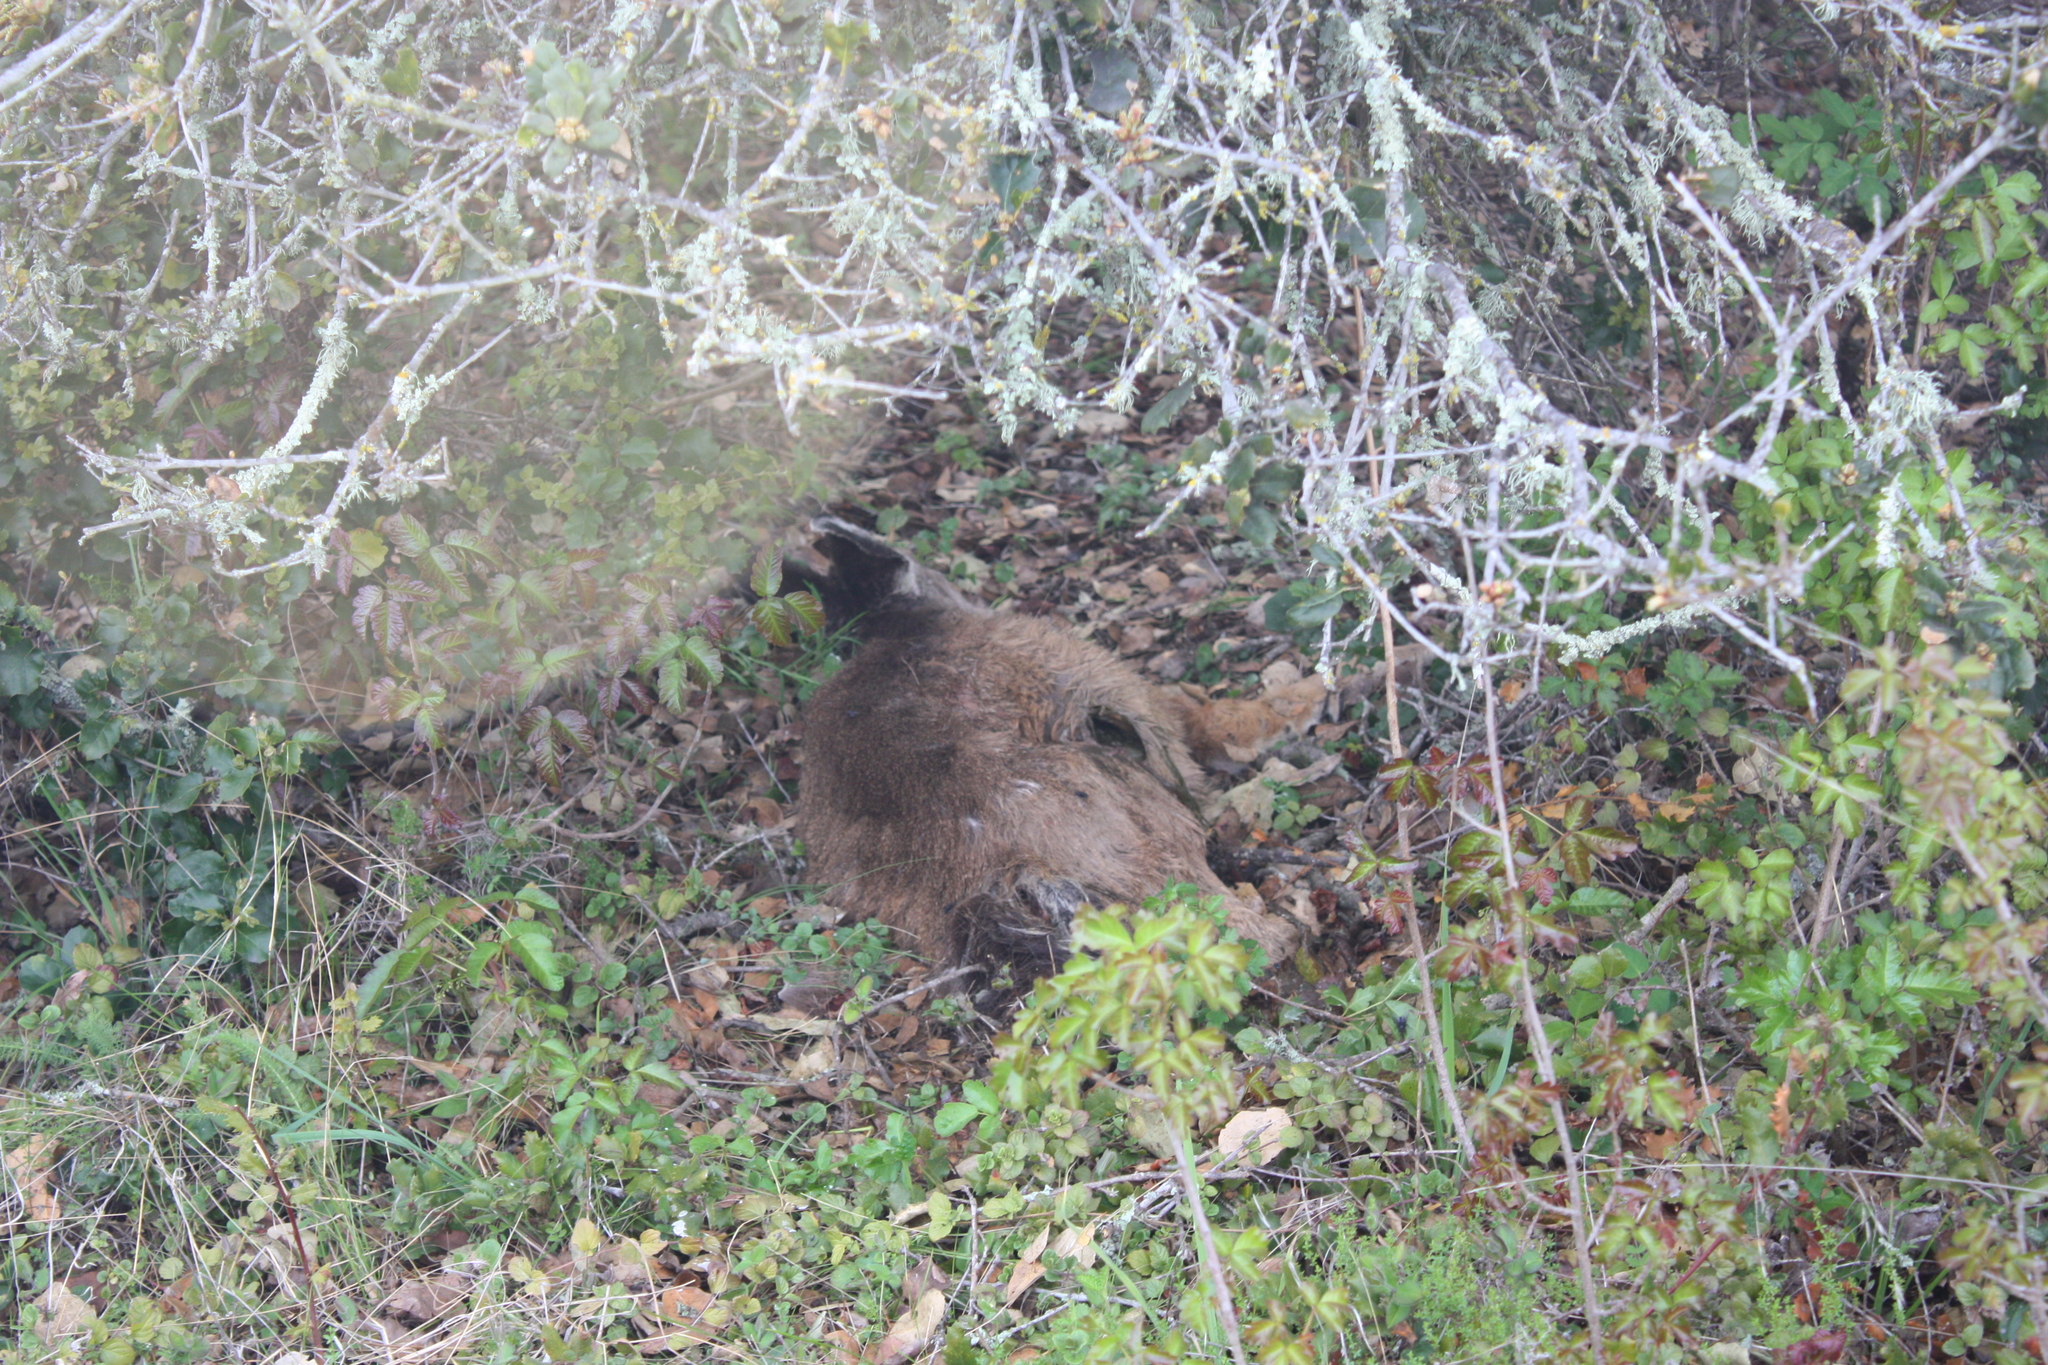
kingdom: Animalia
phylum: Chordata
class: Mammalia
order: Artiodactyla
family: Cervidae
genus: Odocoileus
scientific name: Odocoileus hemionus
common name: Mule deer
